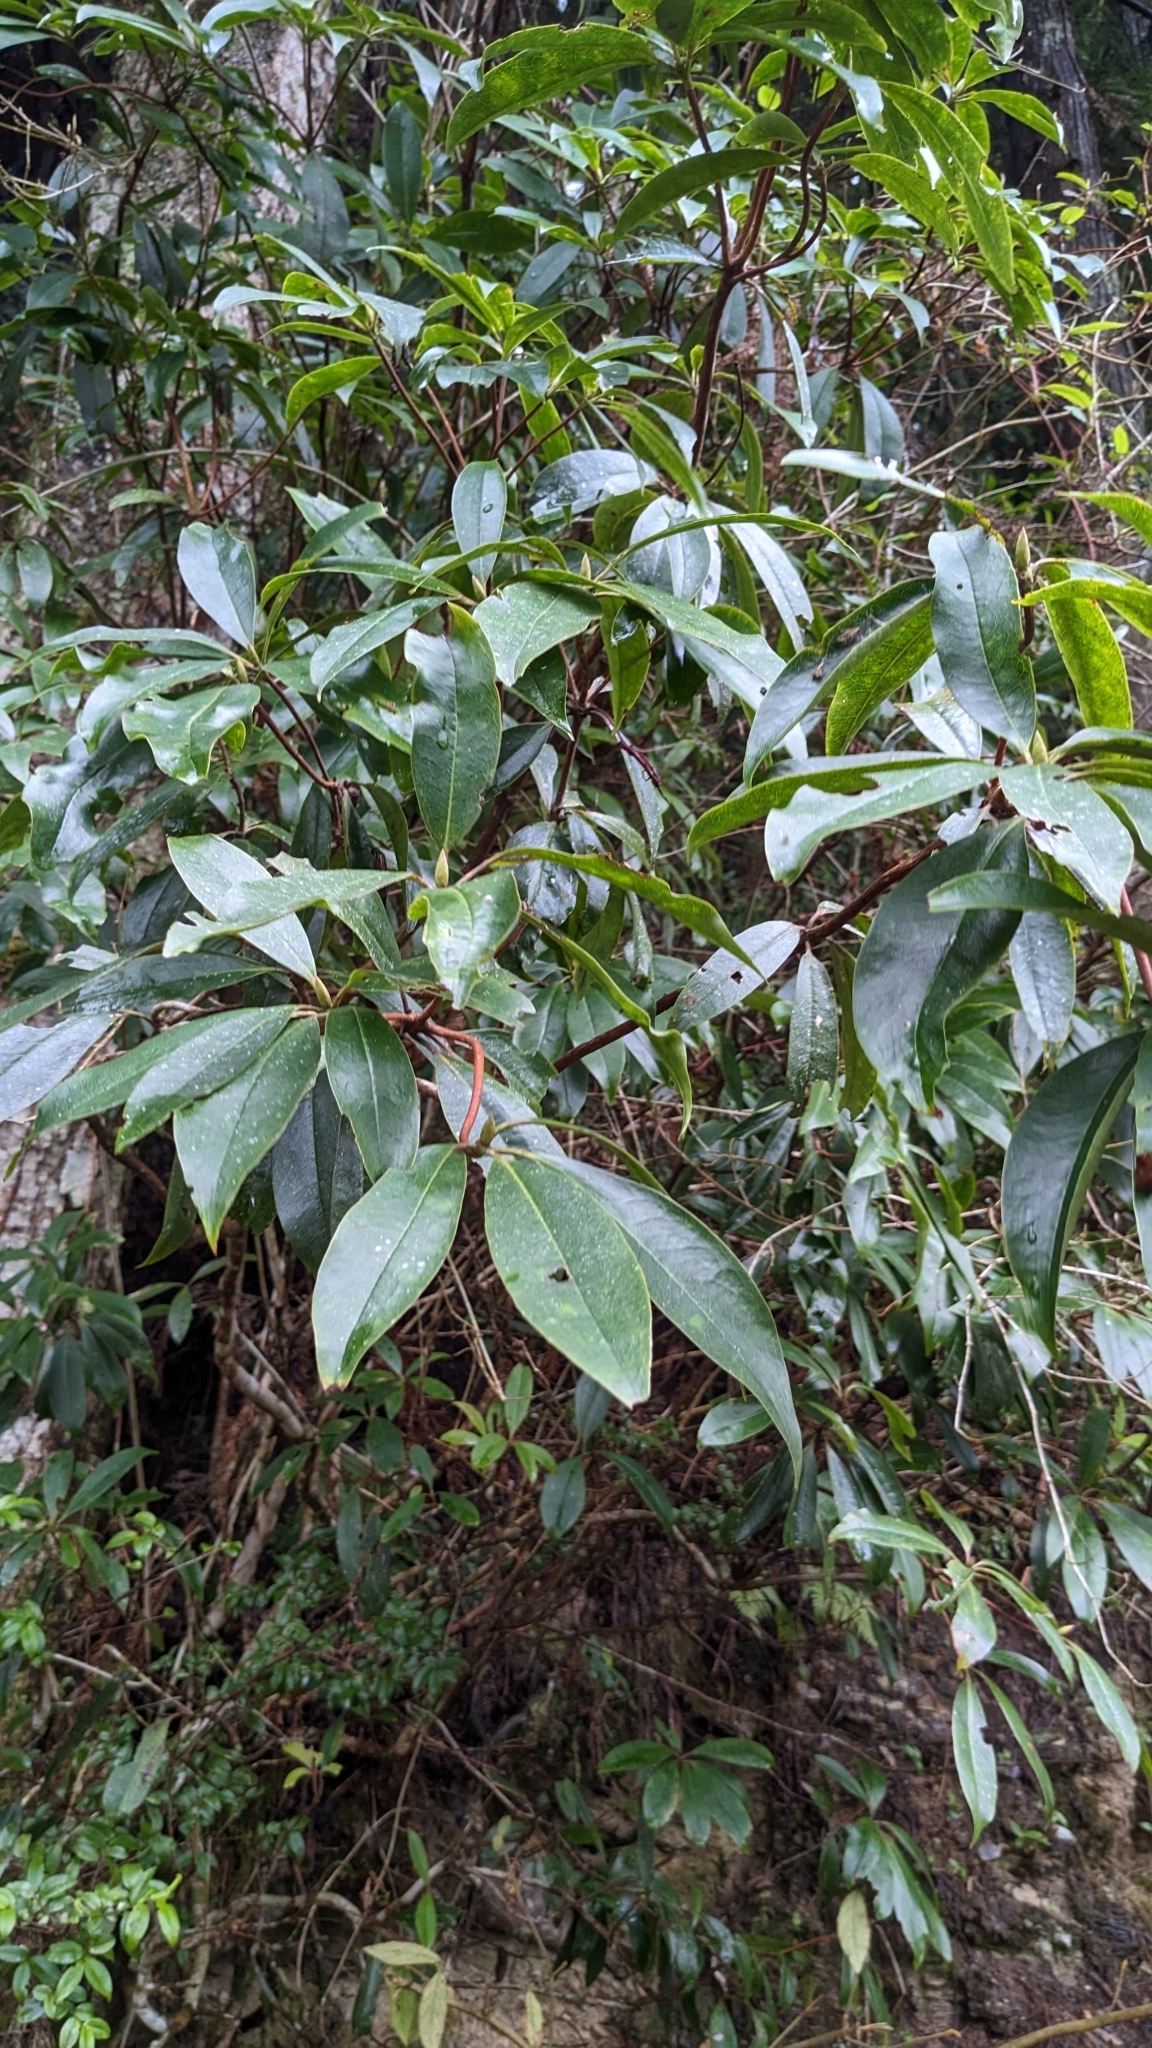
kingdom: Plantae
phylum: Tracheophyta
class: Magnoliopsida
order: Ericales
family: Ericaceae
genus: Rhododendron
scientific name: Rhododendron latoucheae
